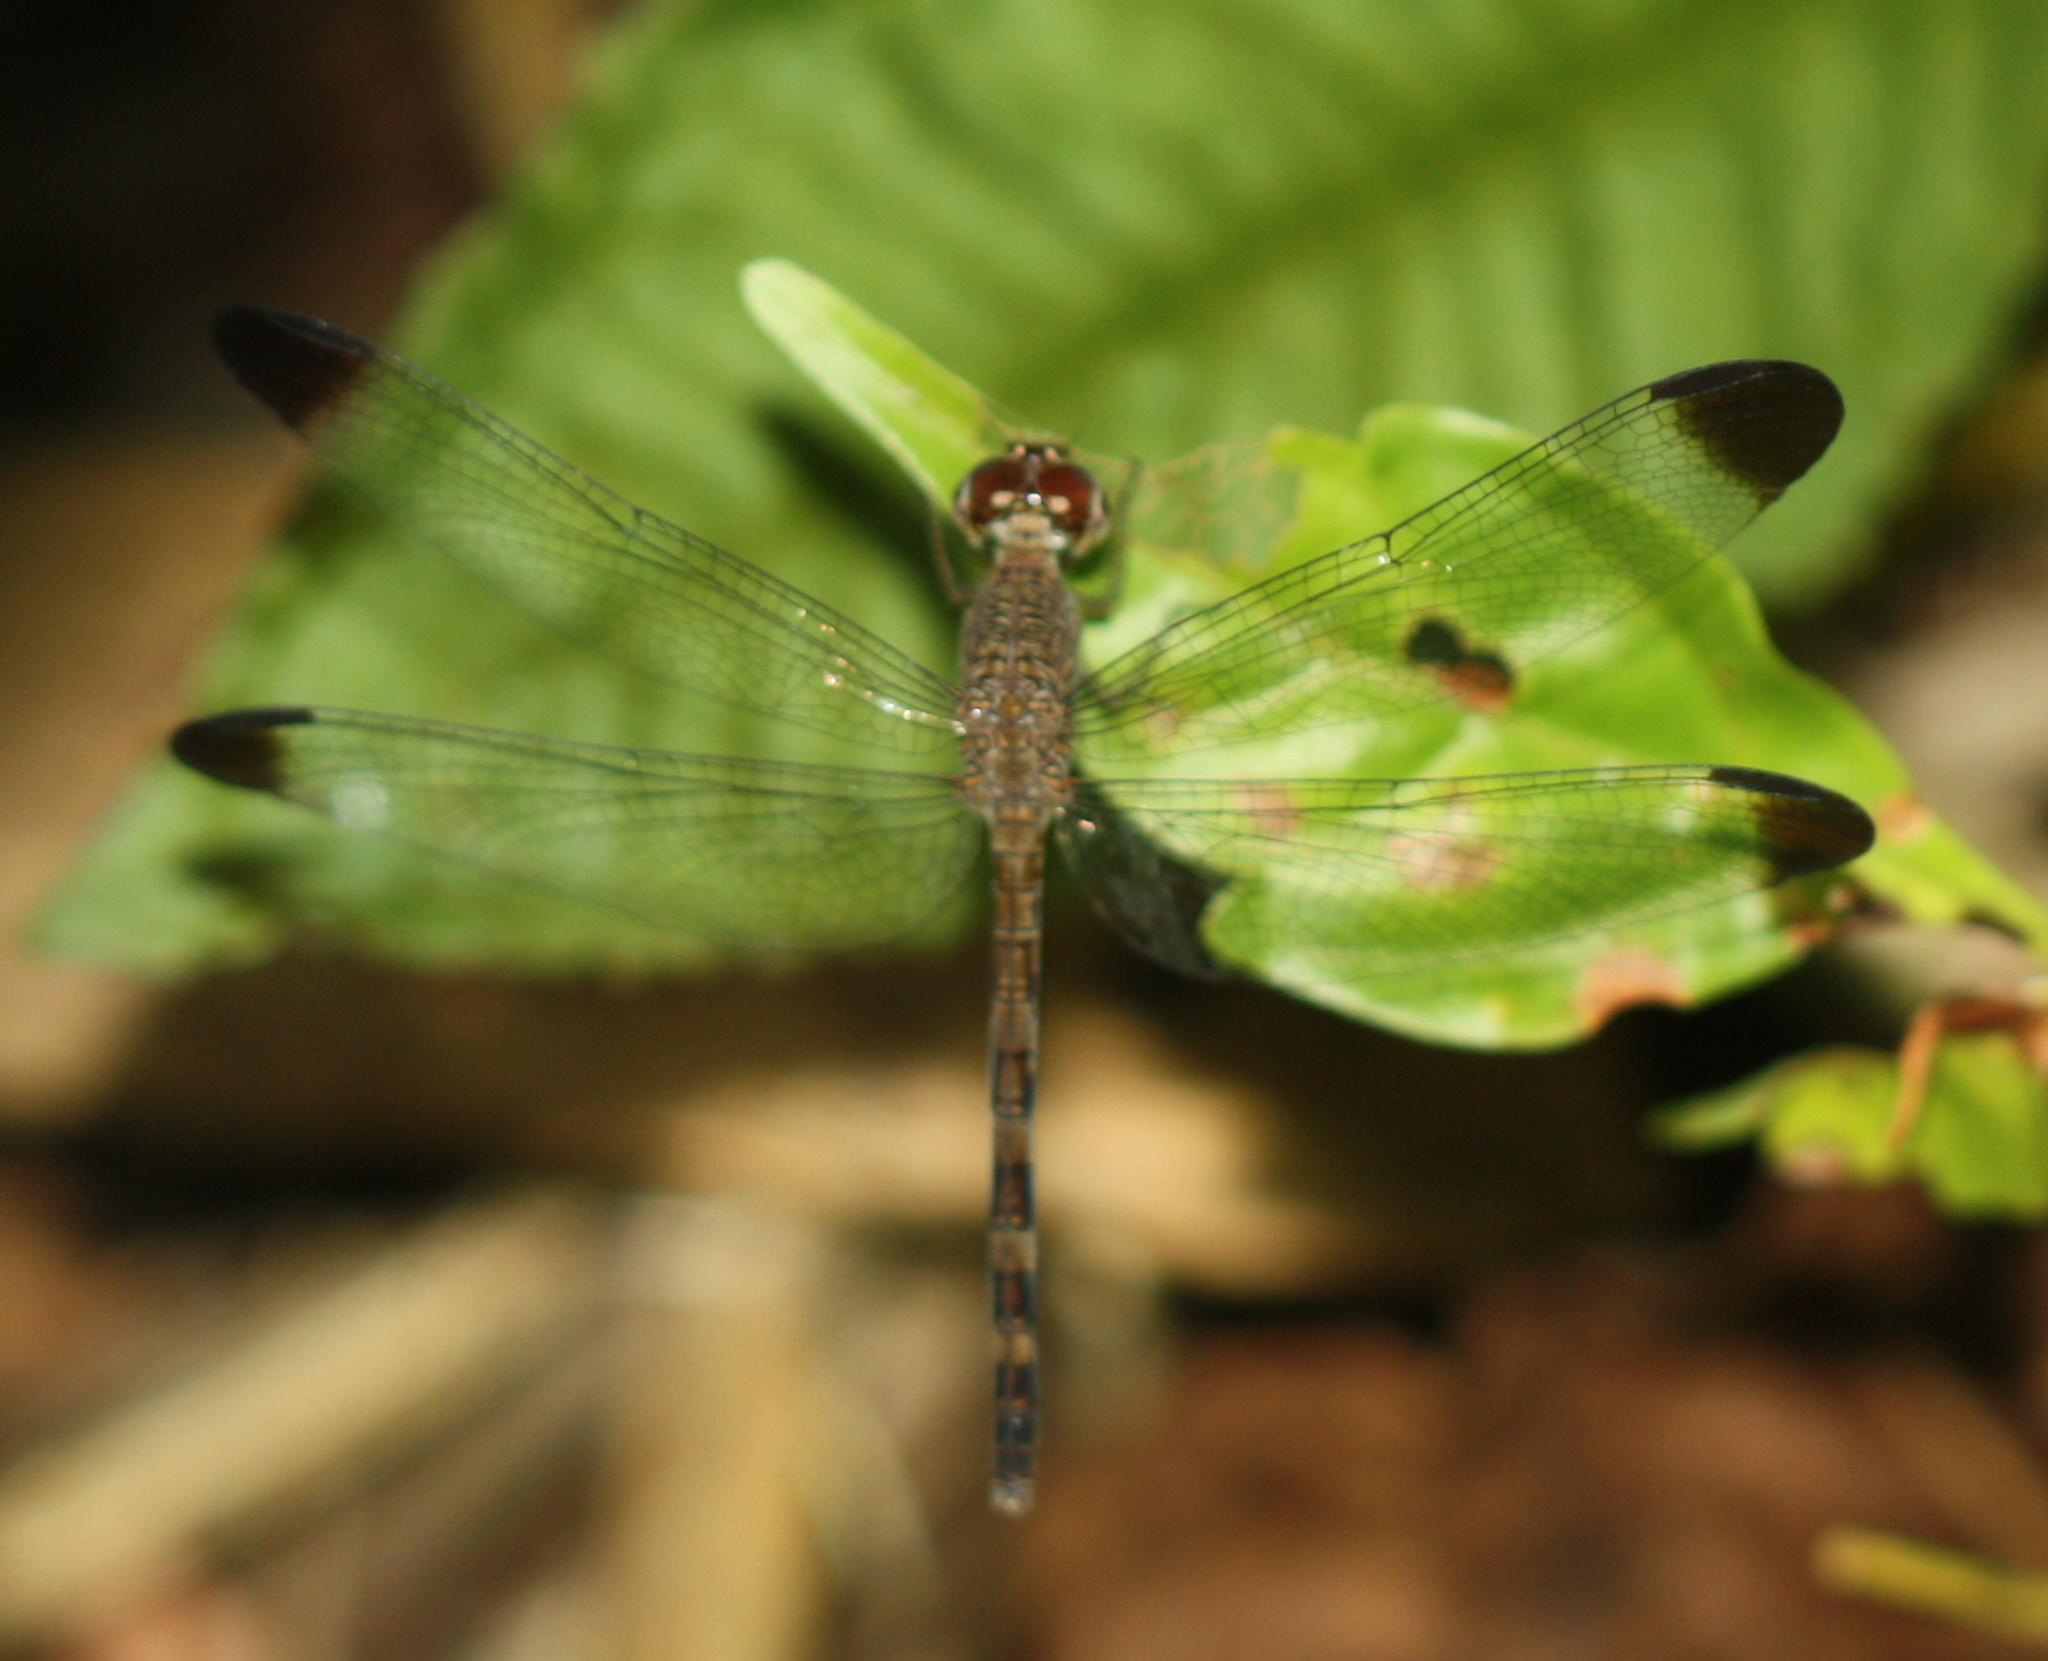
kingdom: Animalia
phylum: Arthropoda
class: Insecta
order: Odonata
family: Libellulidae
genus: Uracis
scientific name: Uracis imbuta
